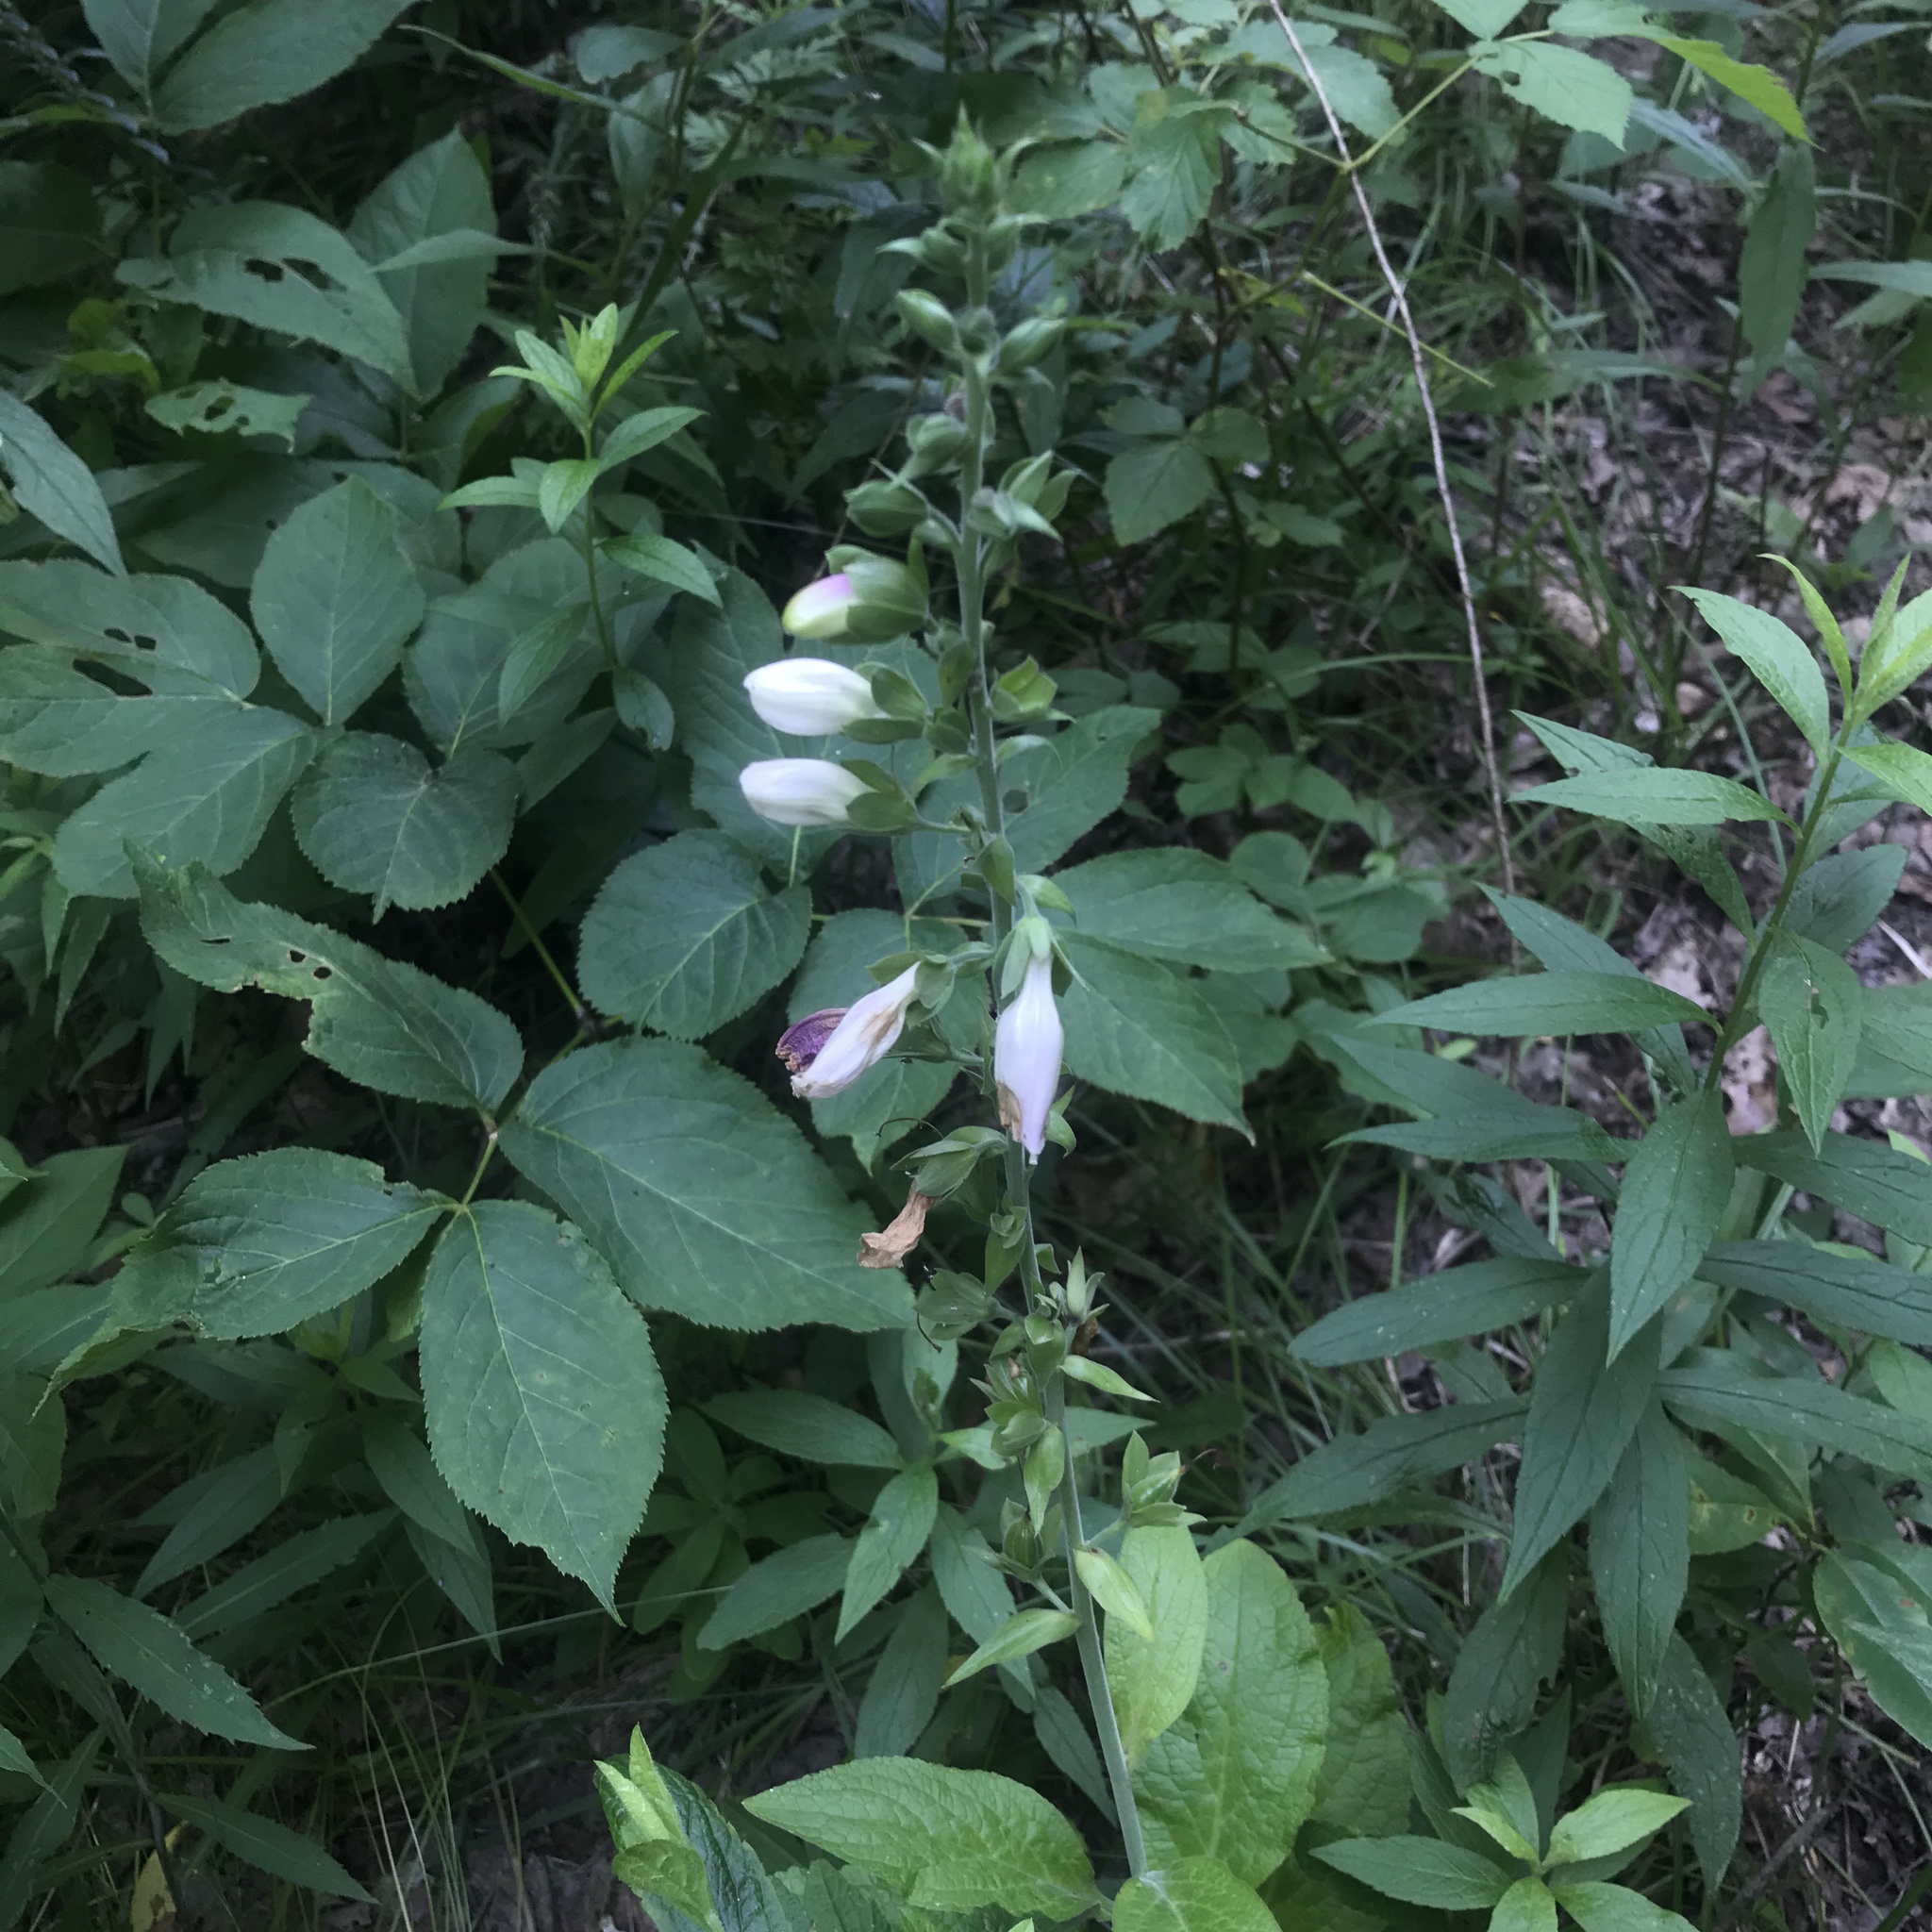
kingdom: Plantae
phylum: Tracheophyta
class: Magnoliopsida
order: Lamiales
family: Plantaginaceae
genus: Digitalis
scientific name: Digitalis purpurea
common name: Foxglove
